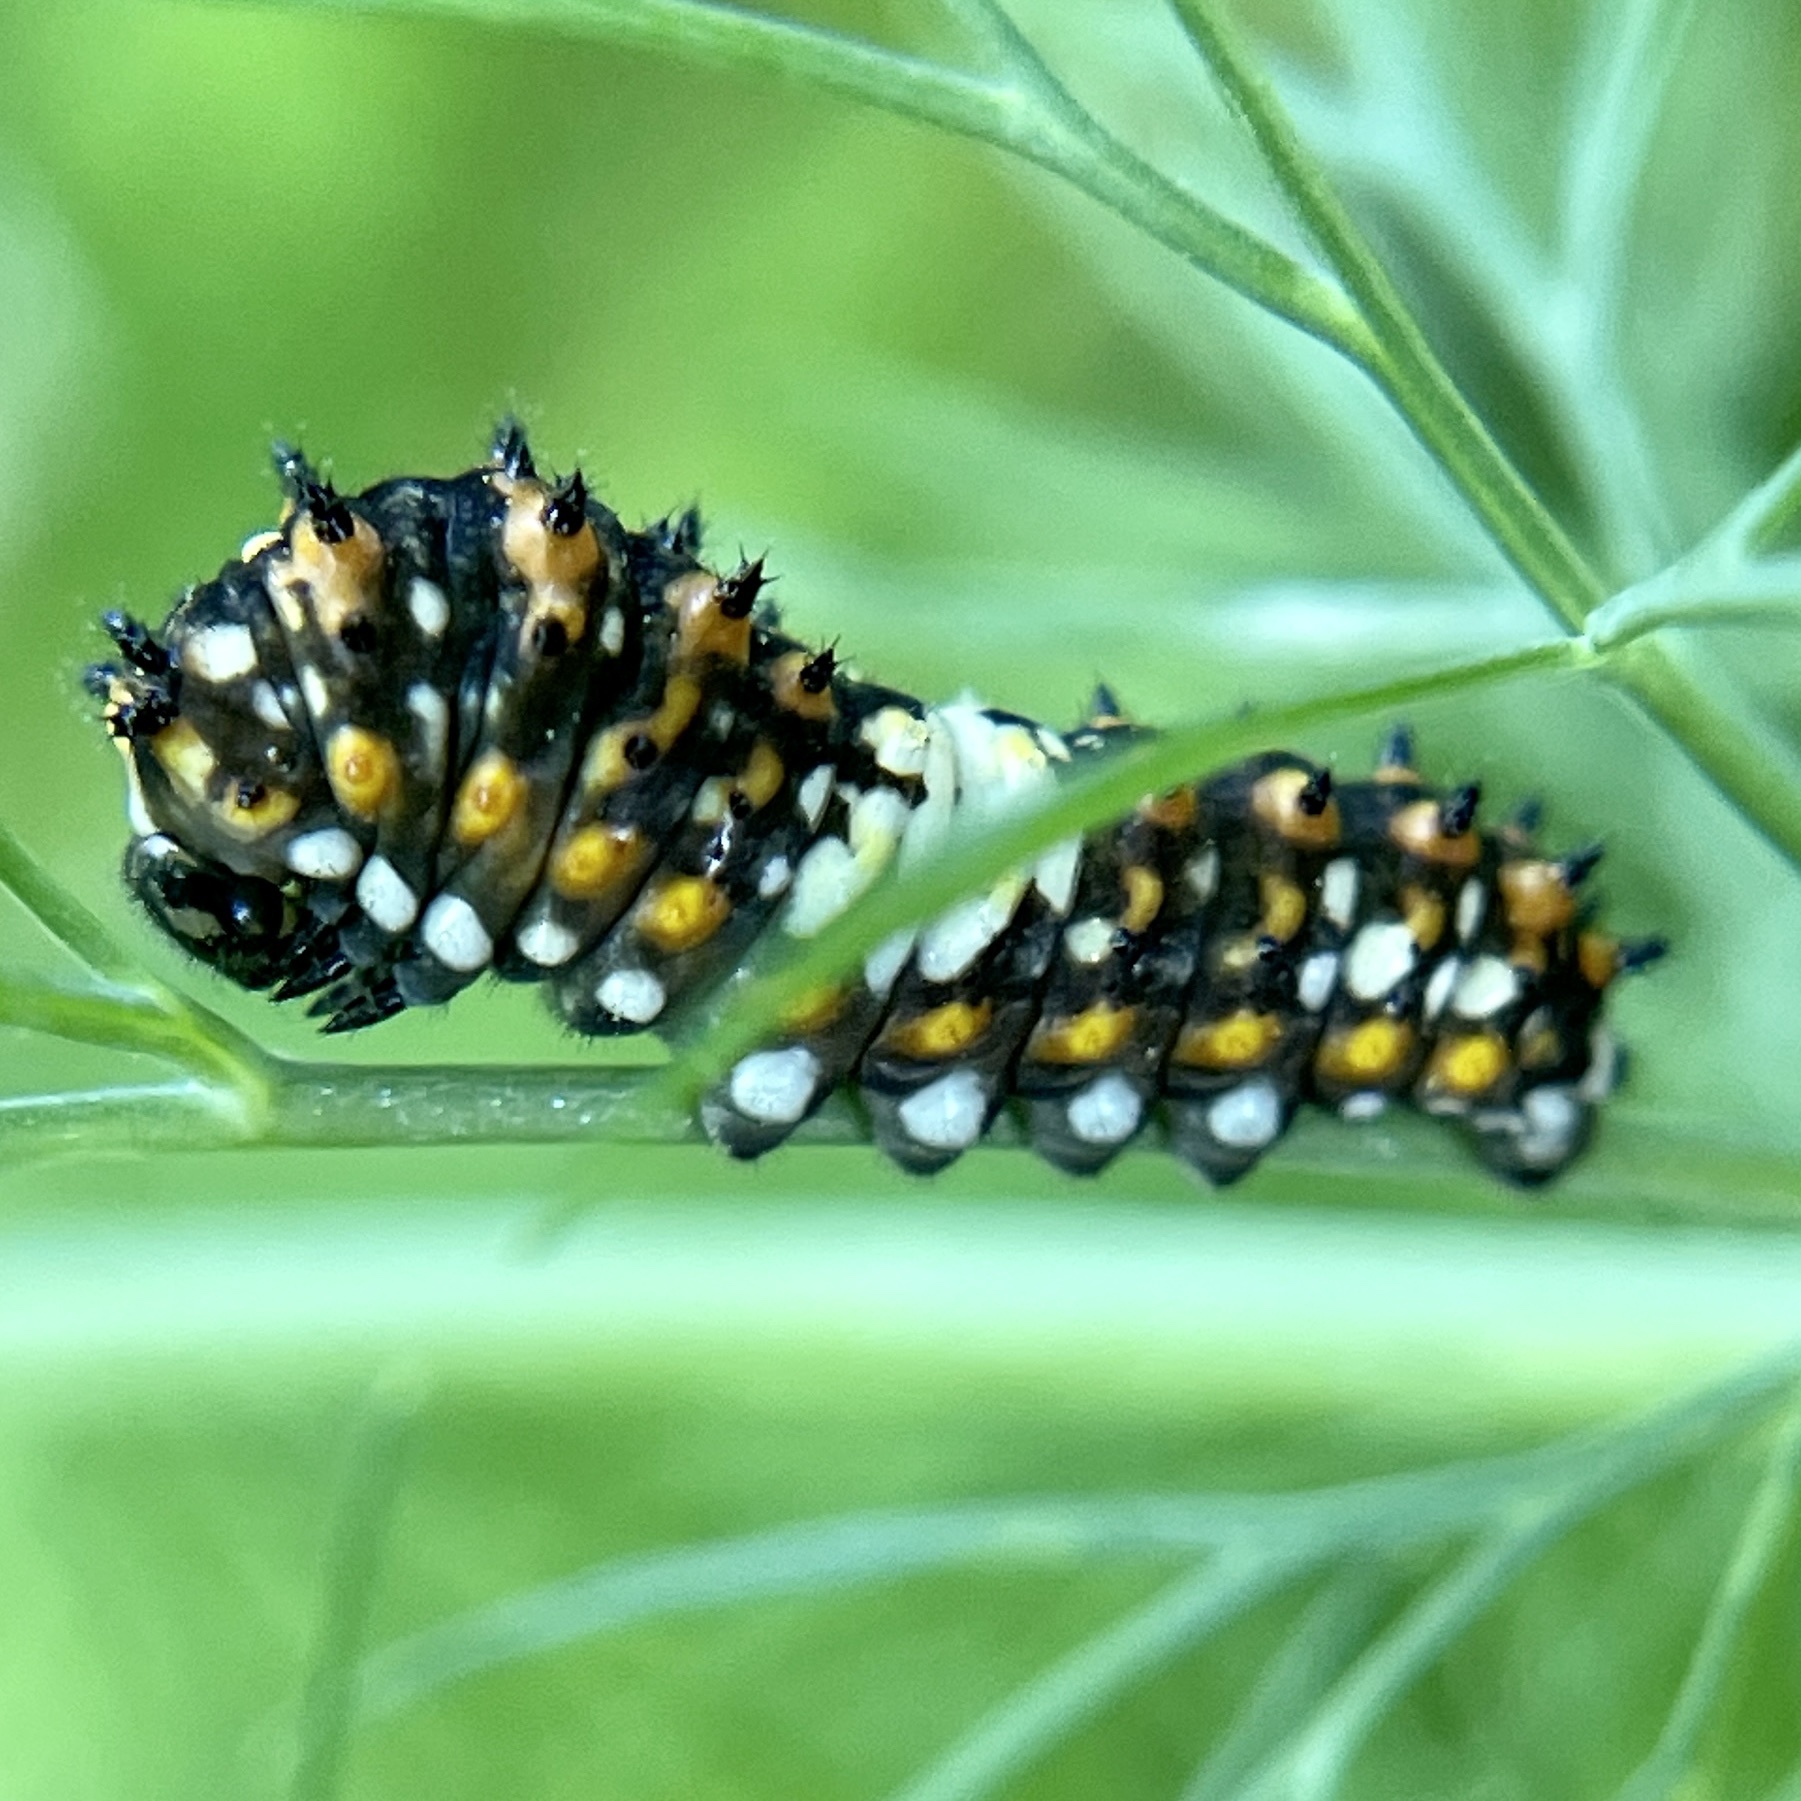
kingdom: Animalia
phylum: Arthropoda
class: Insecta
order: Lepidoptera
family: Papilionidae
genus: Papilio
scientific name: Papilio polyxenes
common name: Black swallowtail
